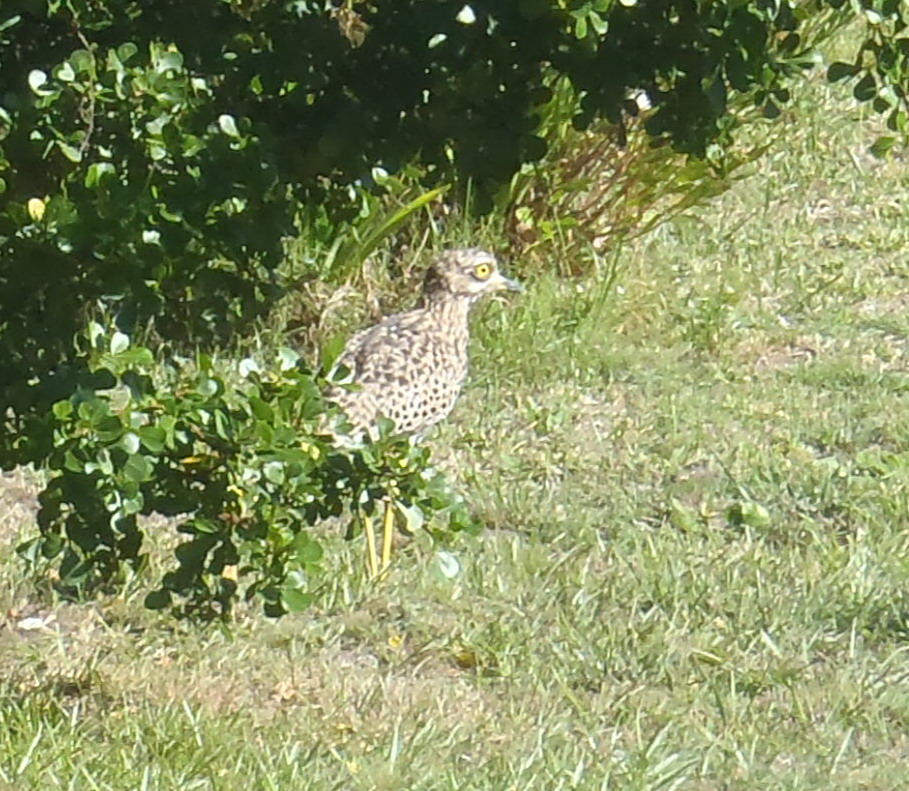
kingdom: Animalia
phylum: Chordata
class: Aves
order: Charadriiformes
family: Burhinidae
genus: Burhinus
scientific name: Burhinus capensis
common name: Spotted thick-knee
